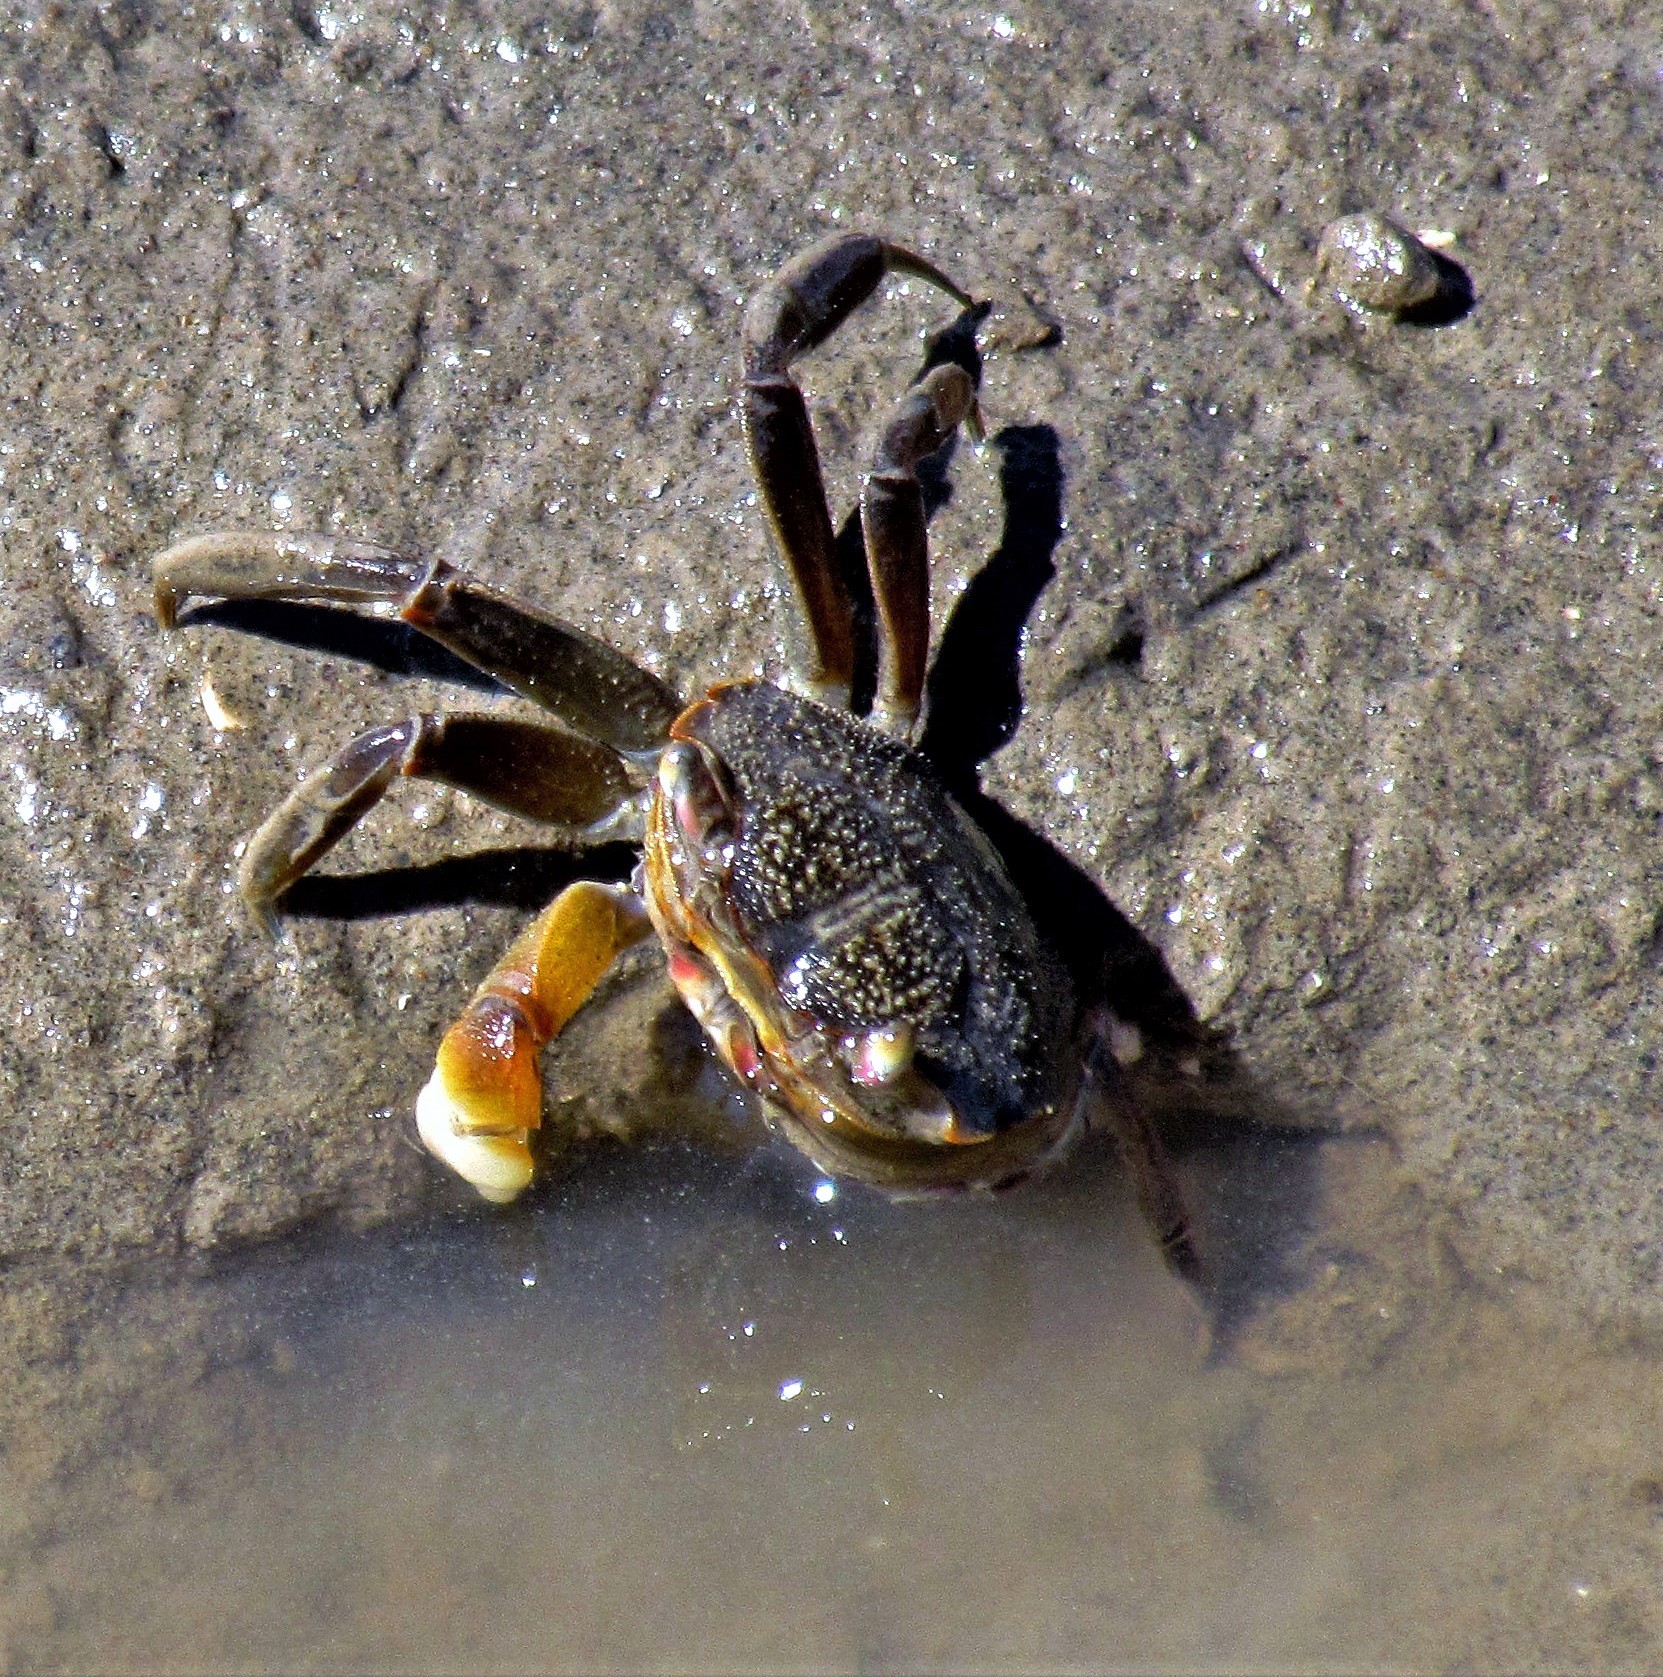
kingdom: Animalia
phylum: Arthropoda
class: Malacostraca
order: Decapoda
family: Varunidae
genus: Neohelice
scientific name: Neohelice granulata
